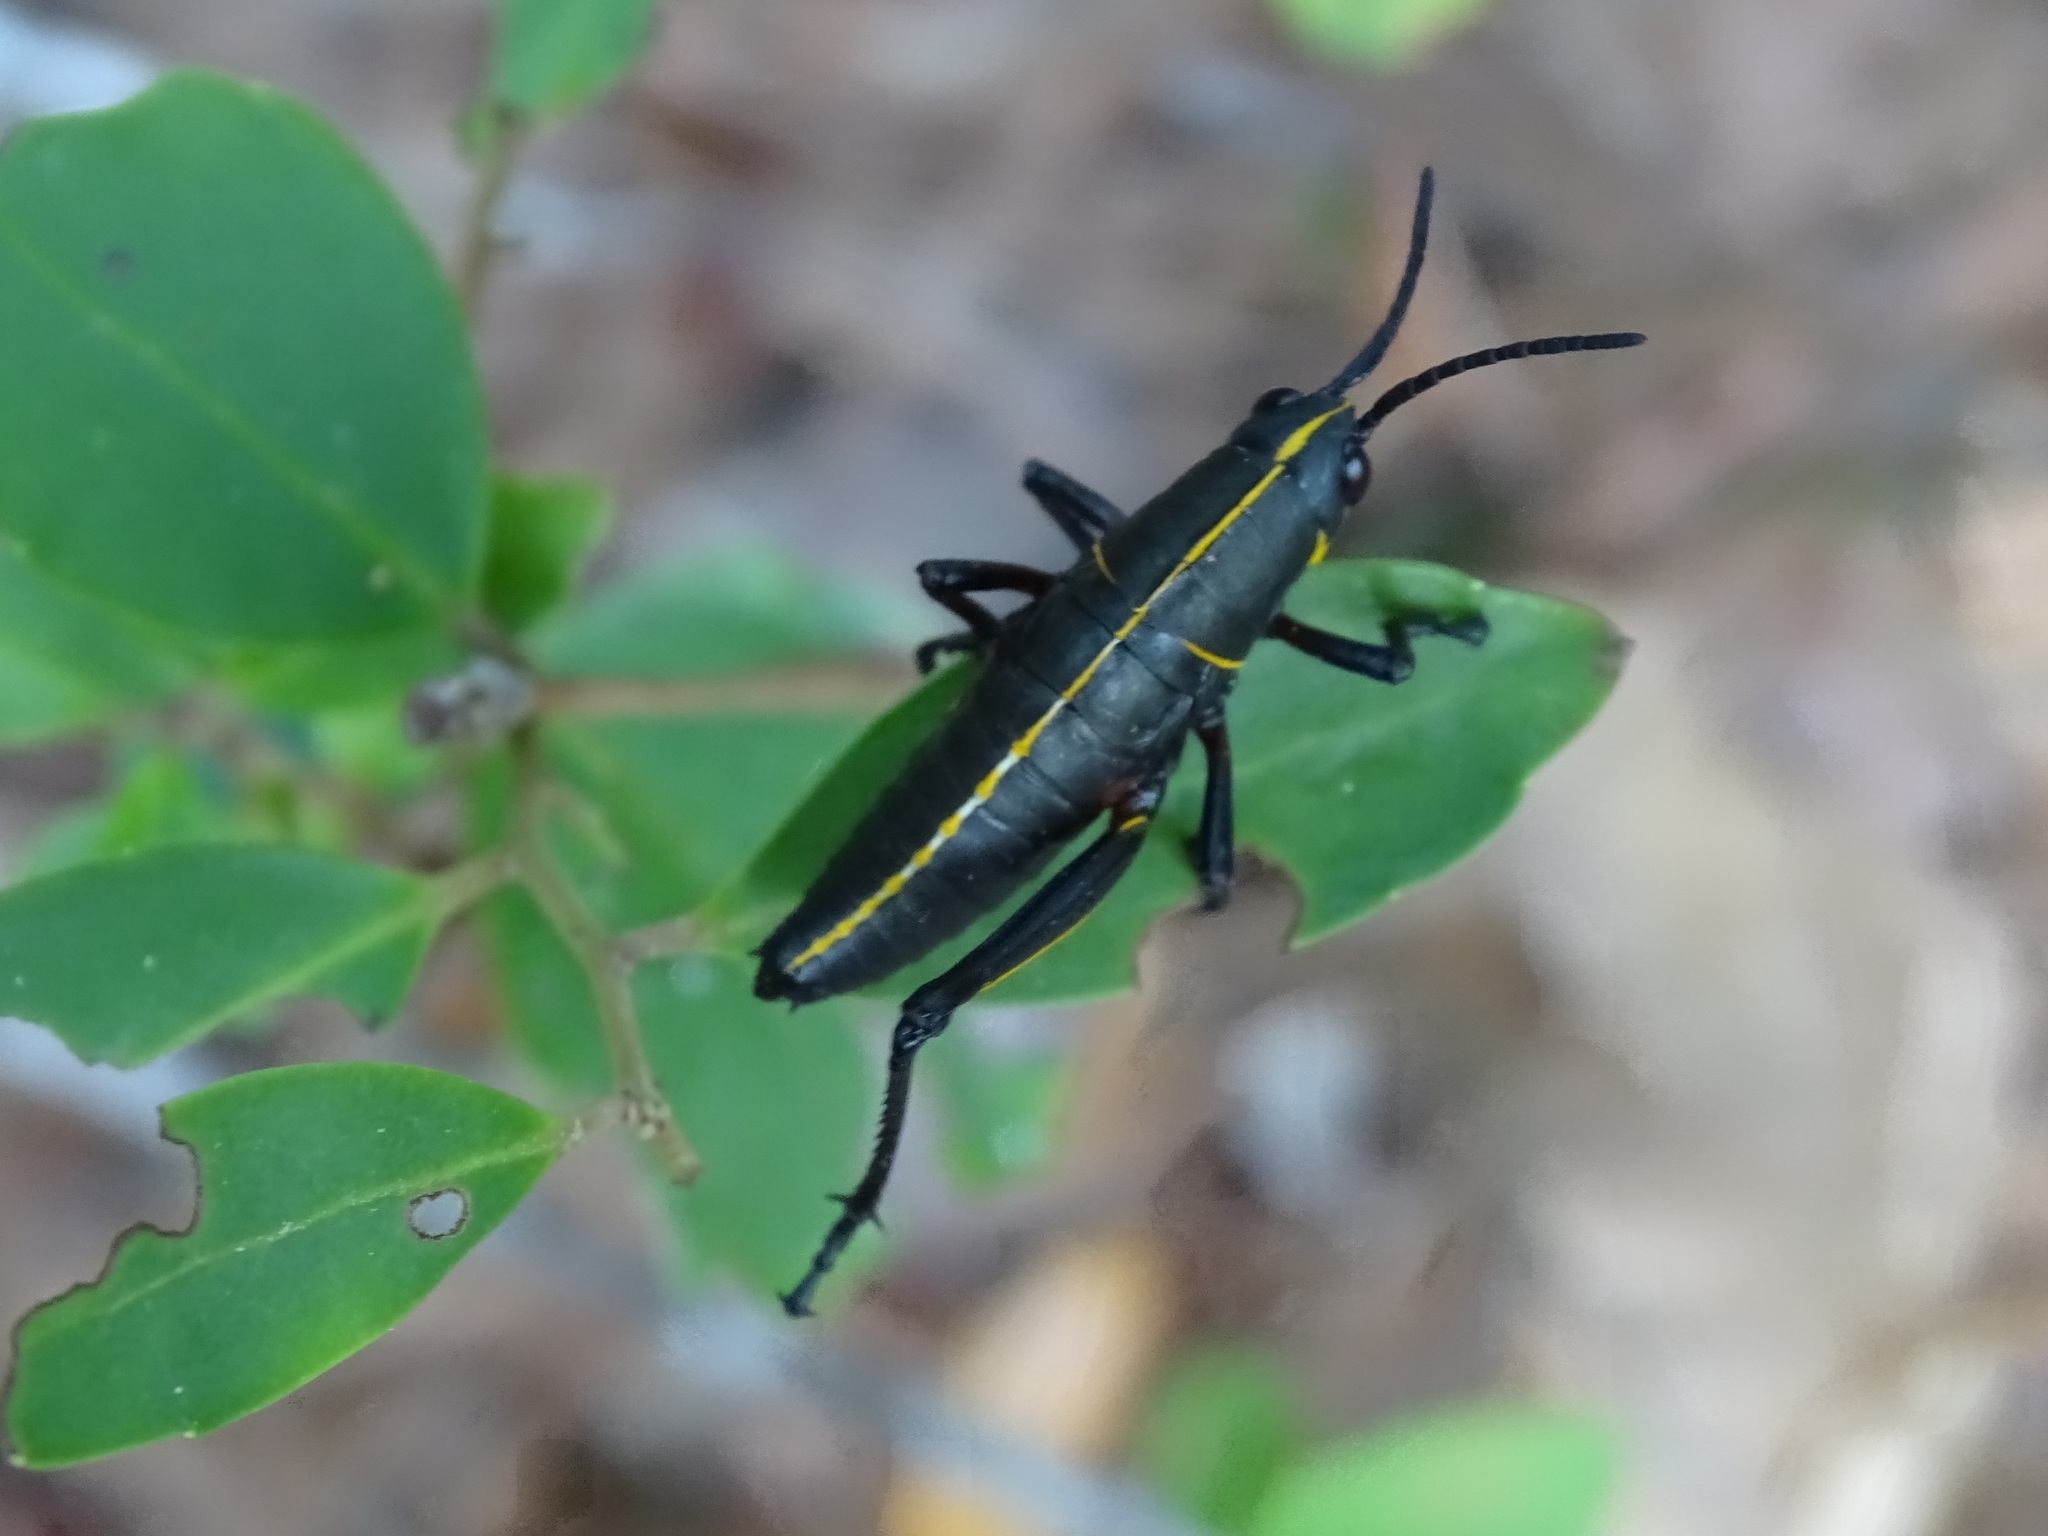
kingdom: Animalia
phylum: Arthropoda
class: Insecta
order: Orthoptera
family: Romaleidae
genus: Romalea
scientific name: Romalea microptera
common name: Eastern lubber grasshopper
